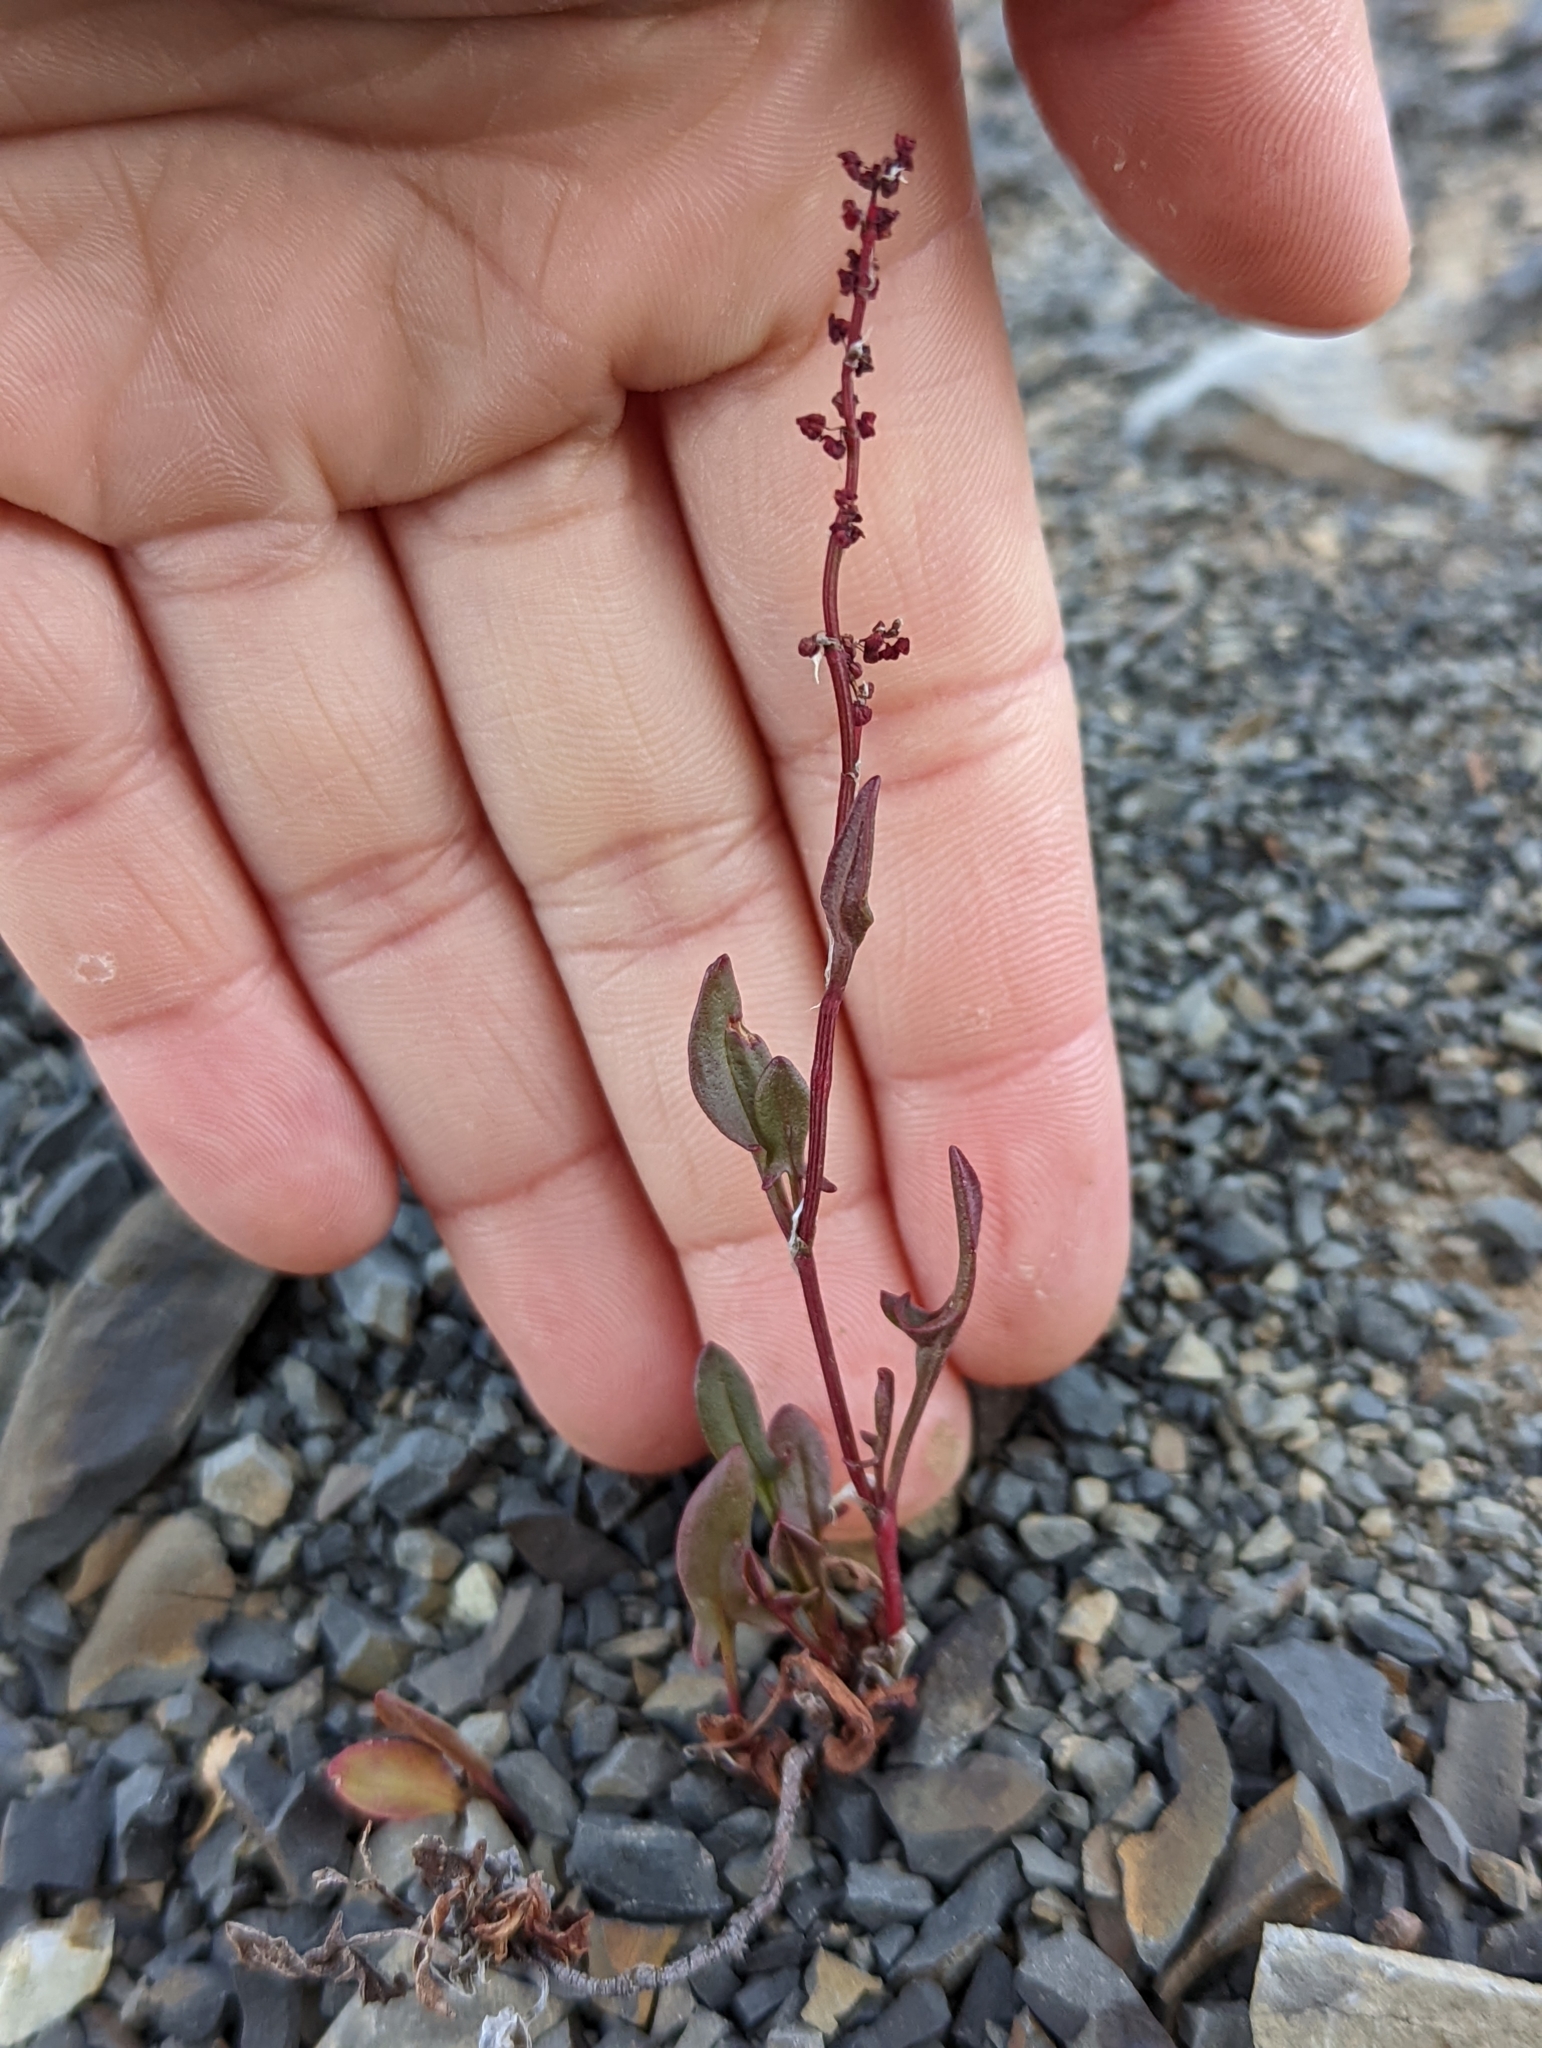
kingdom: Plantae
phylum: Tracheophyta
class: Magnoliopsida
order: Caryophyllales
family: Polygonaceae
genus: Rumex
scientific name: Rumex acetosella
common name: Common sheep sorrel
